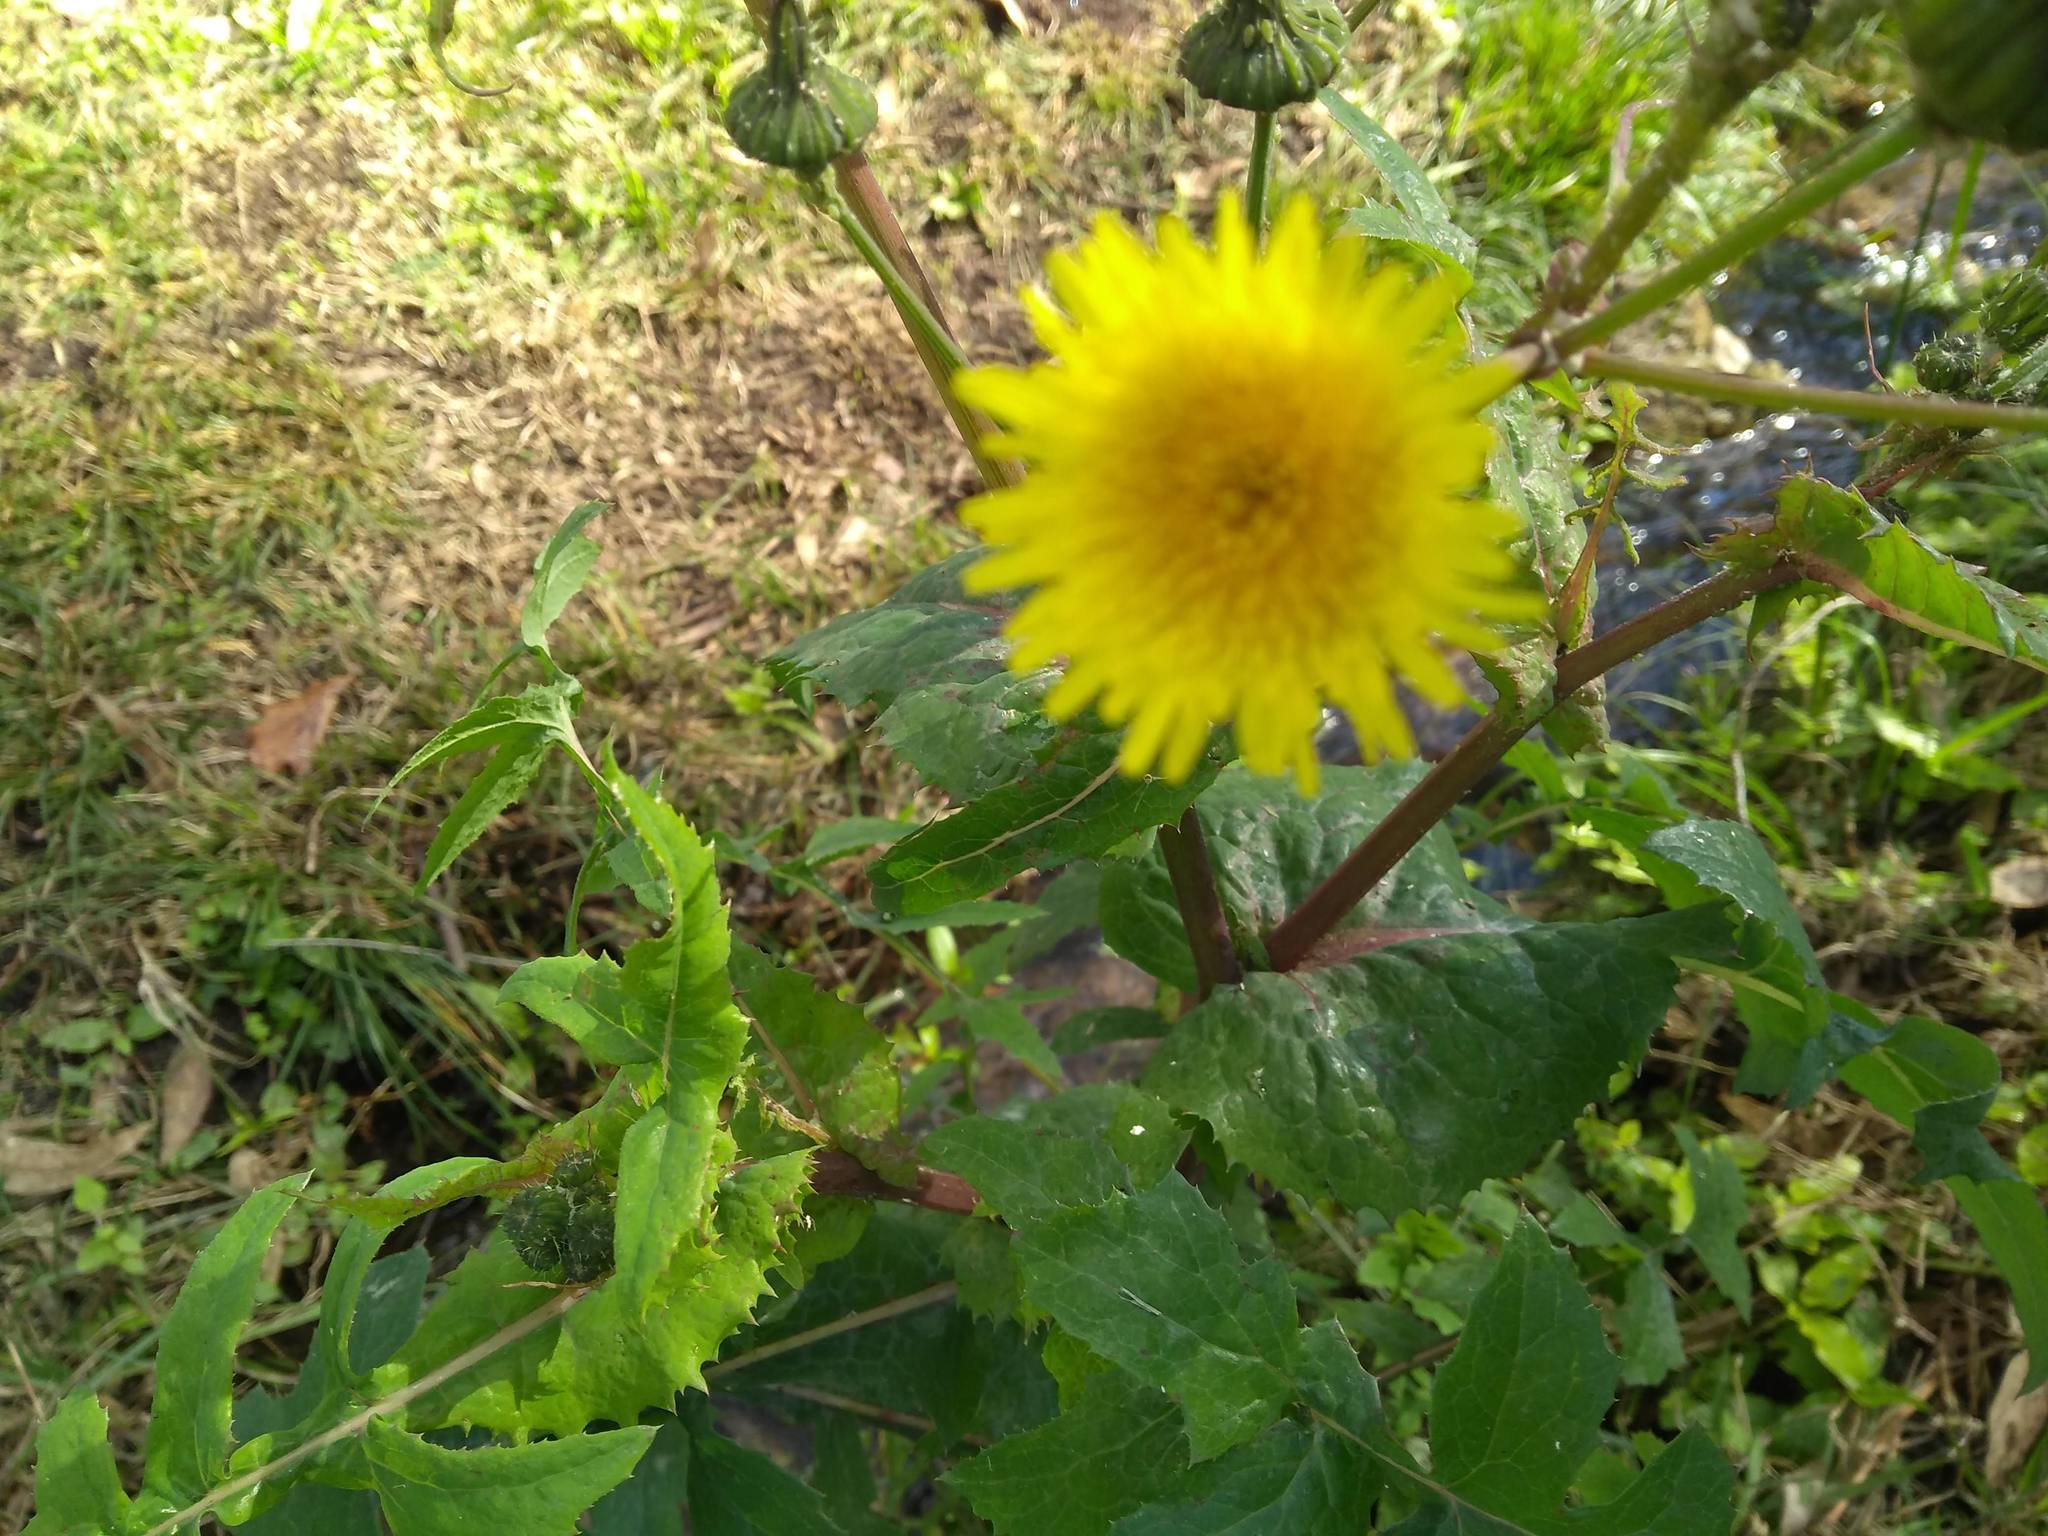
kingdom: Plantae
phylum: Tracheophyta
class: Magnoliopsida
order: Asterales
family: Asteraceae
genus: Sonchus
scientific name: Sonchus oleraceus
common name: Common sowthistle
